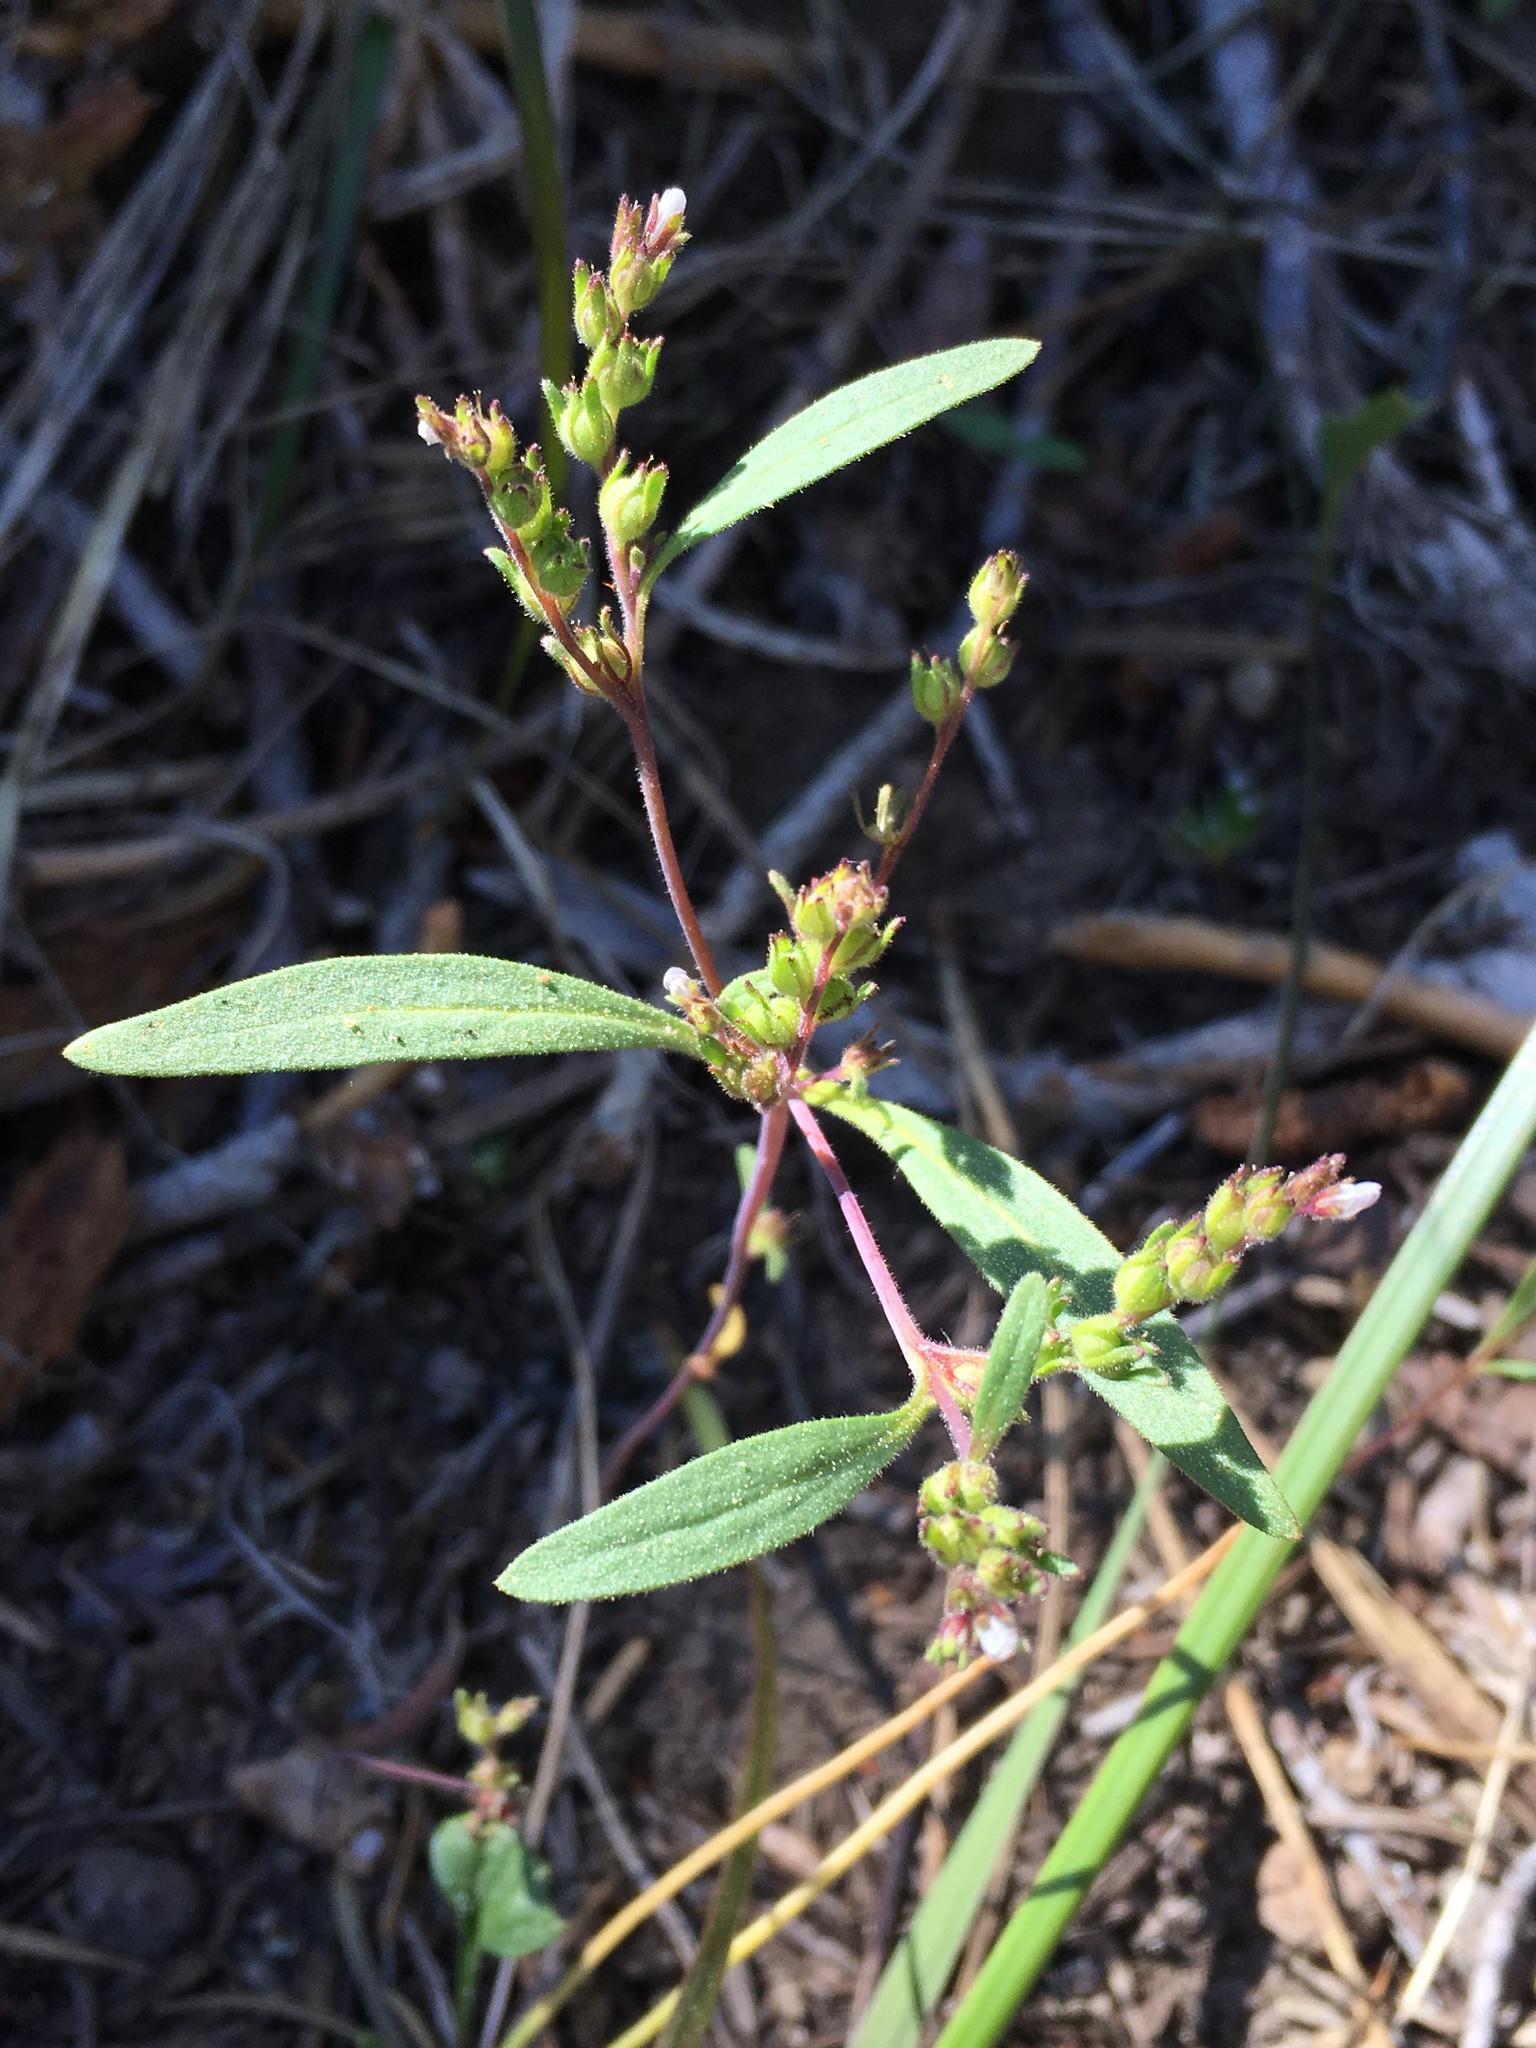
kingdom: Plantae
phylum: Tracheophyta
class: Magnoliopsida
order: Boraginales
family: Hydrophyllaceae
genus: Phacelia
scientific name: Phacelia racemosa
